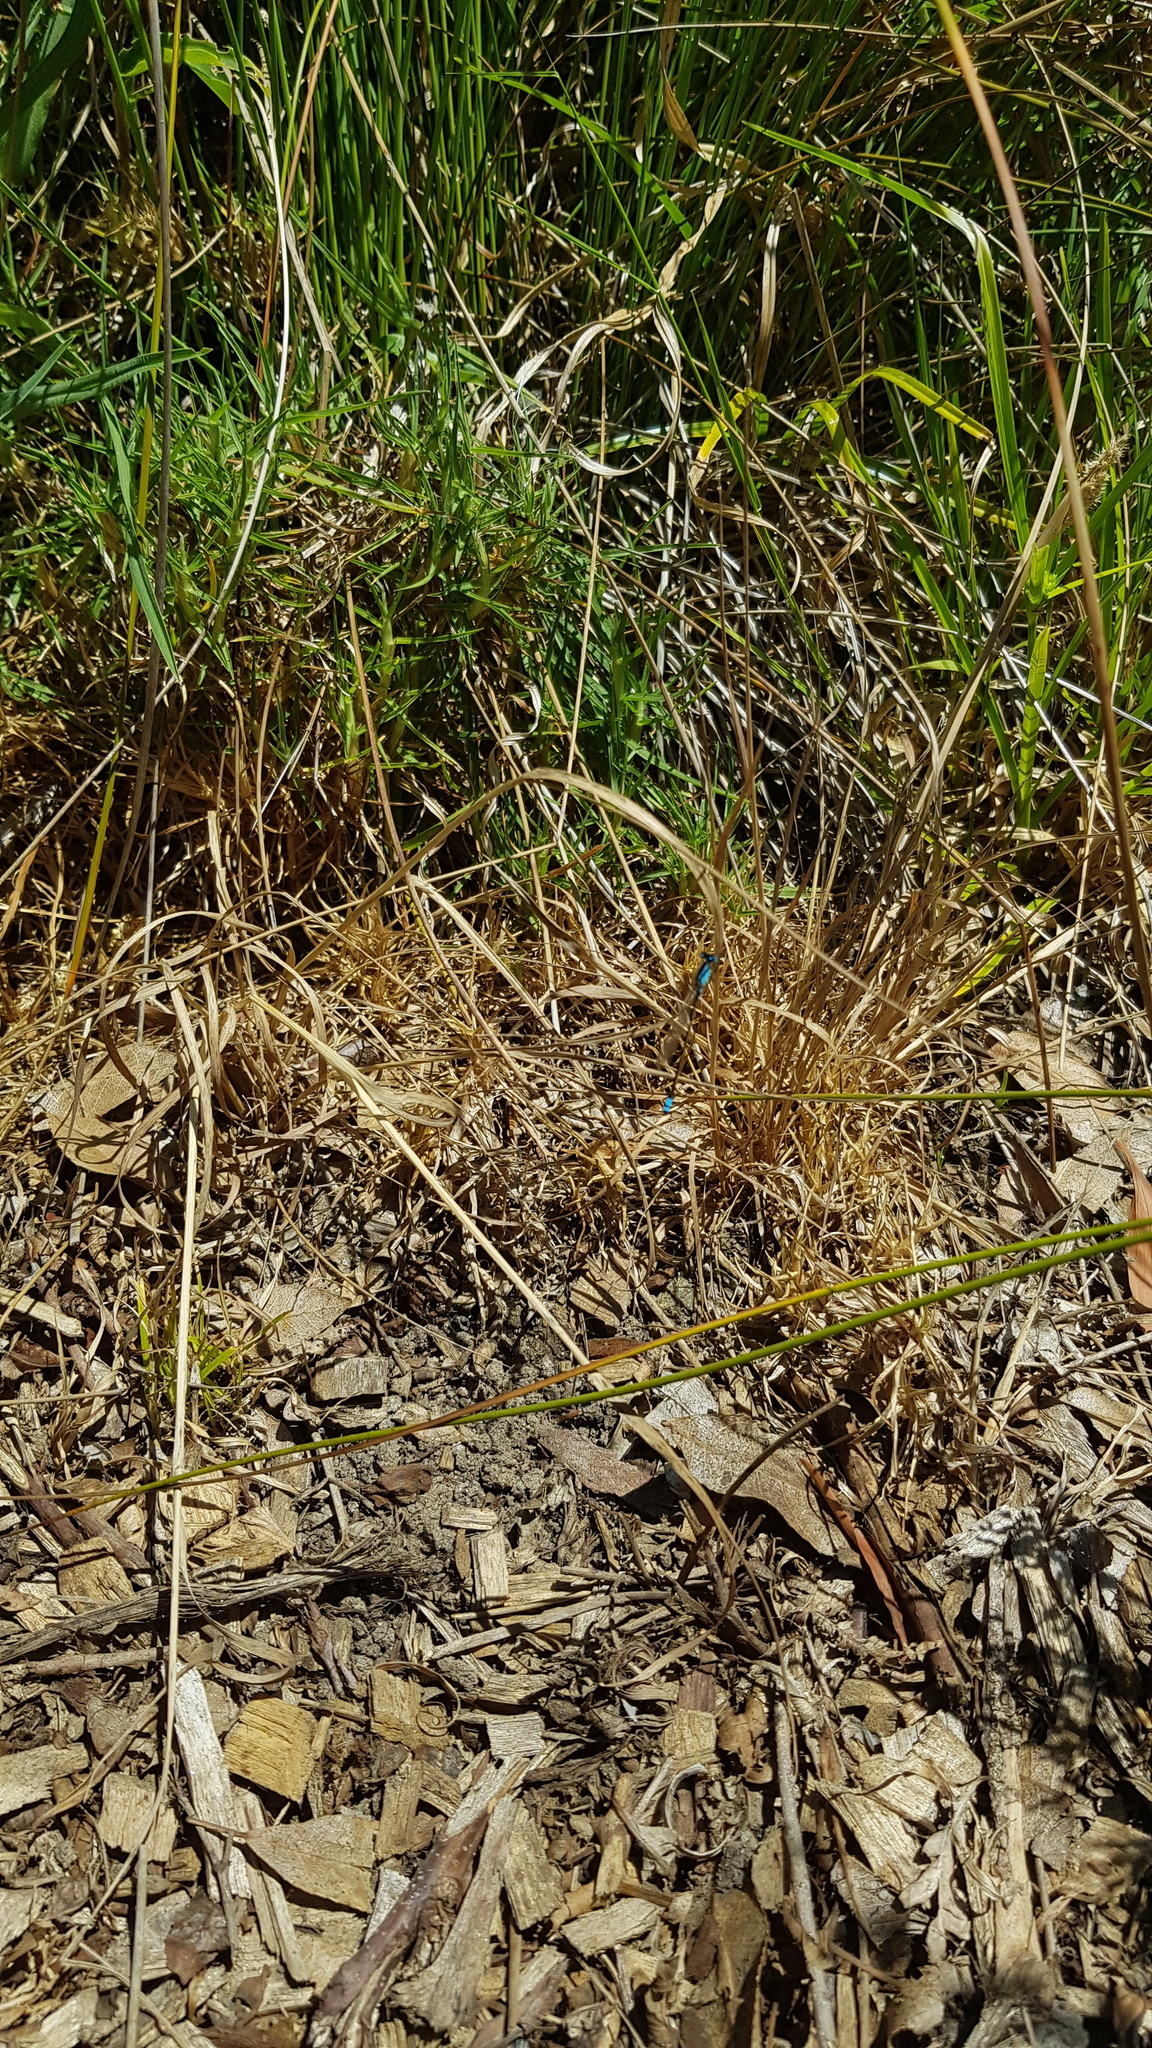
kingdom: Animalia
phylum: Arthropoda
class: Insecta
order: Odonata
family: Coenagrionidae
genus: Ischnura
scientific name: Ischnura heterosticta
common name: Common bluetail
